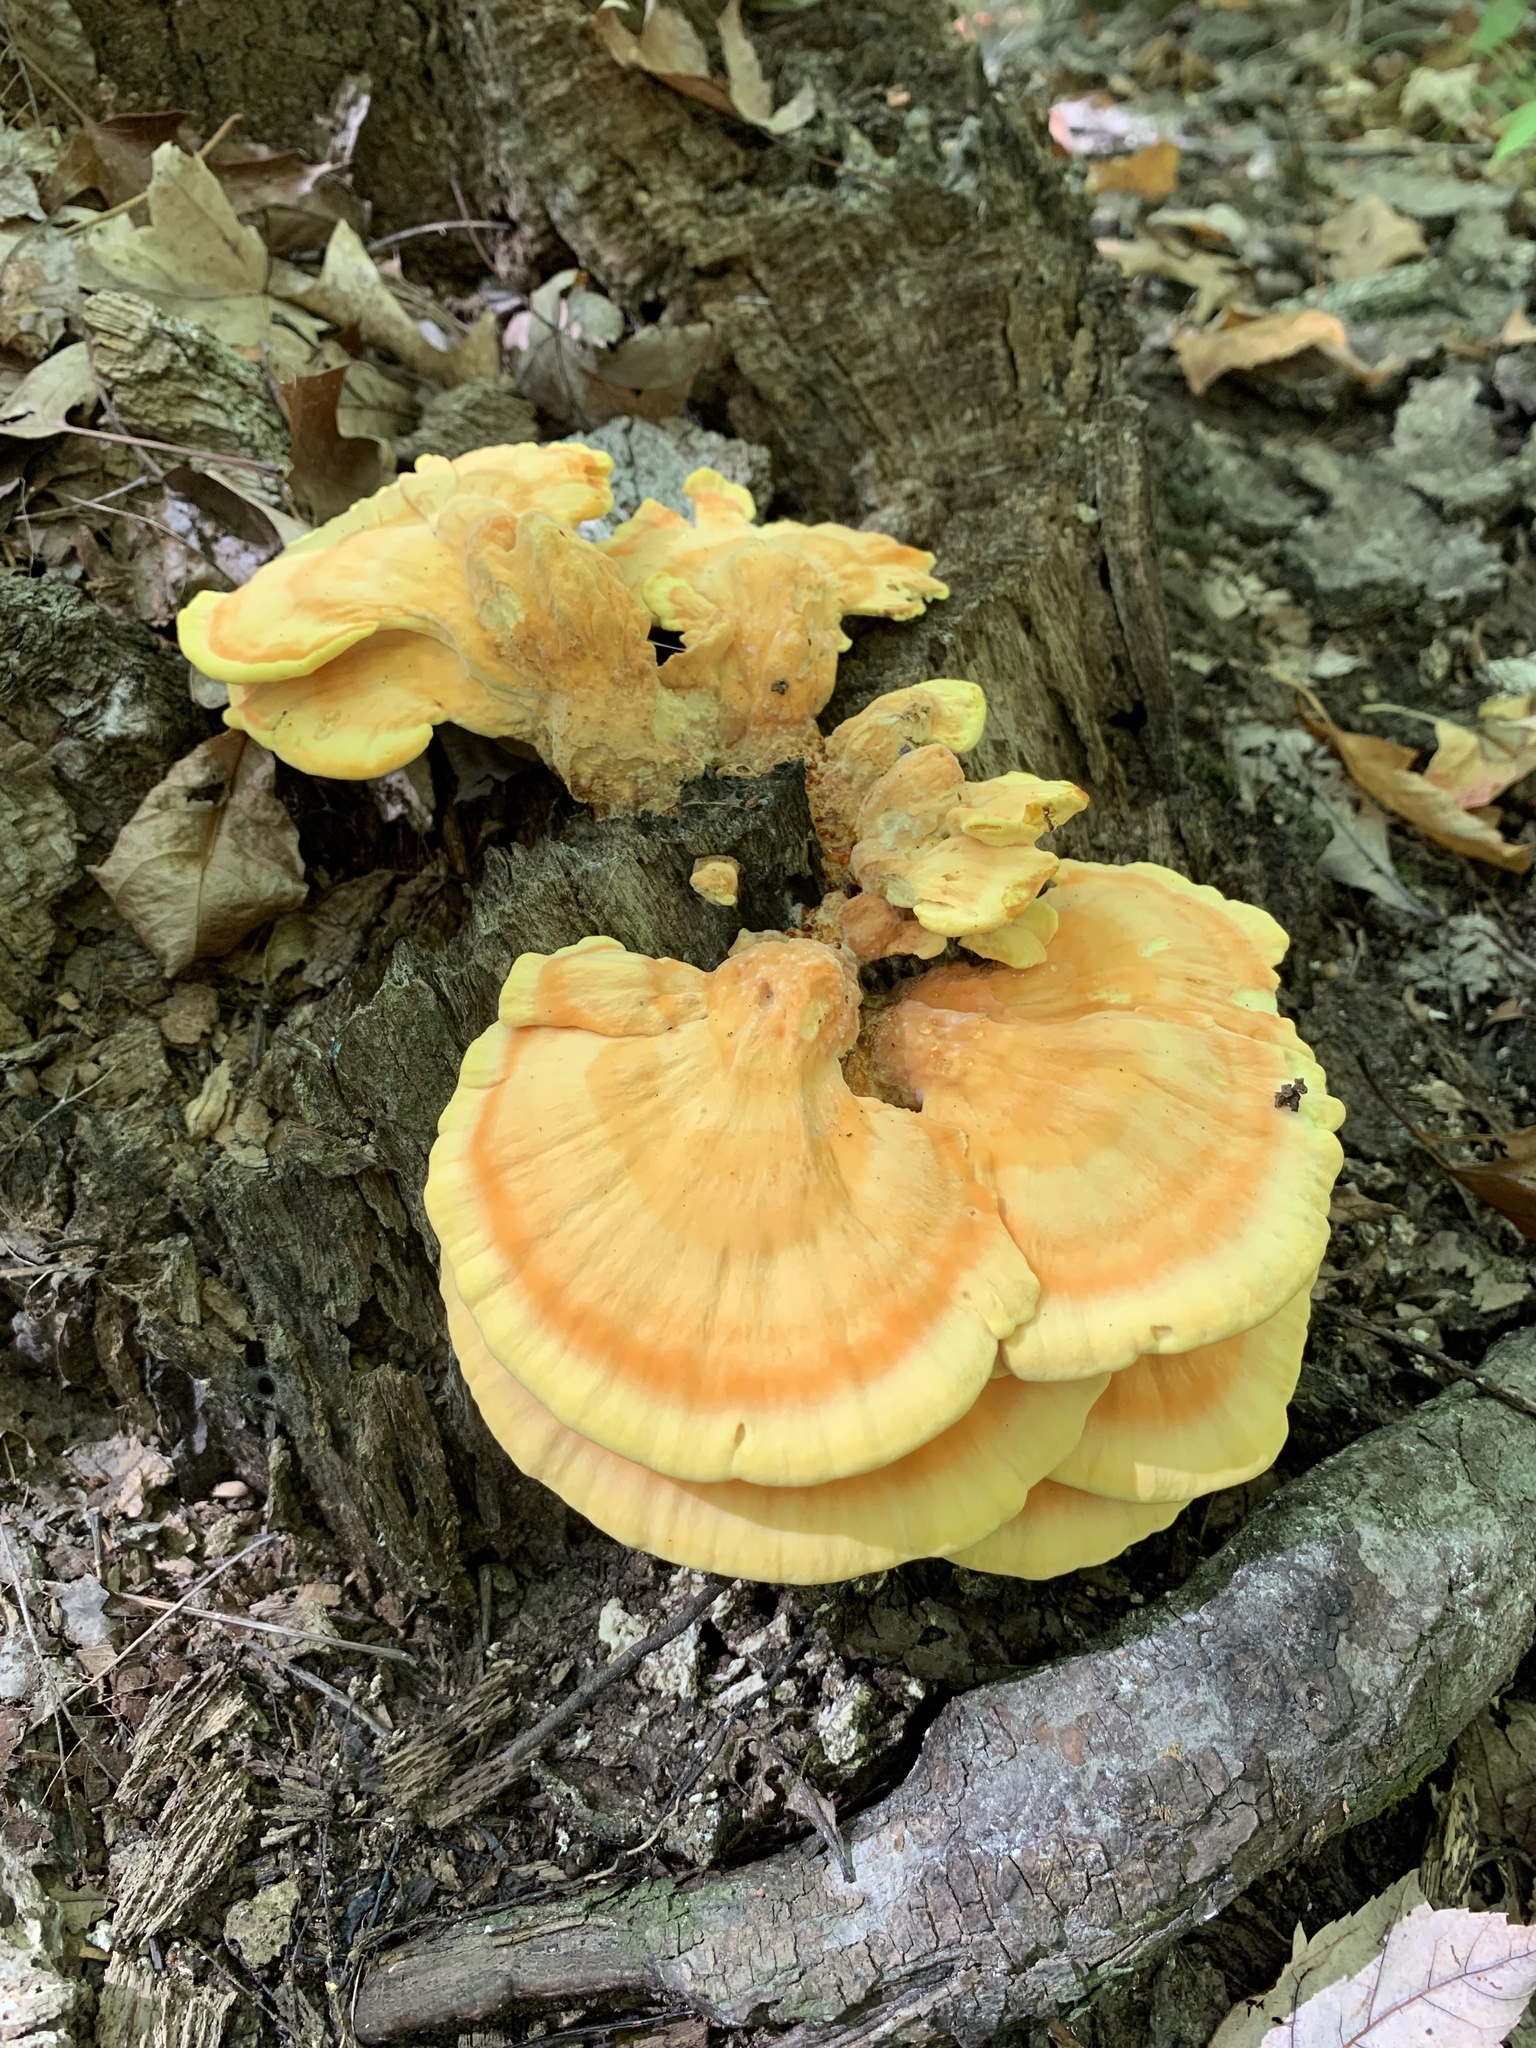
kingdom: Fungi
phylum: Basidiomycota
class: Agaricomycetes
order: Polyporales
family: Laetiporaceae
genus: Laetiporus
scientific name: Laetiporus sulphureus
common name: Chicken of the woods
